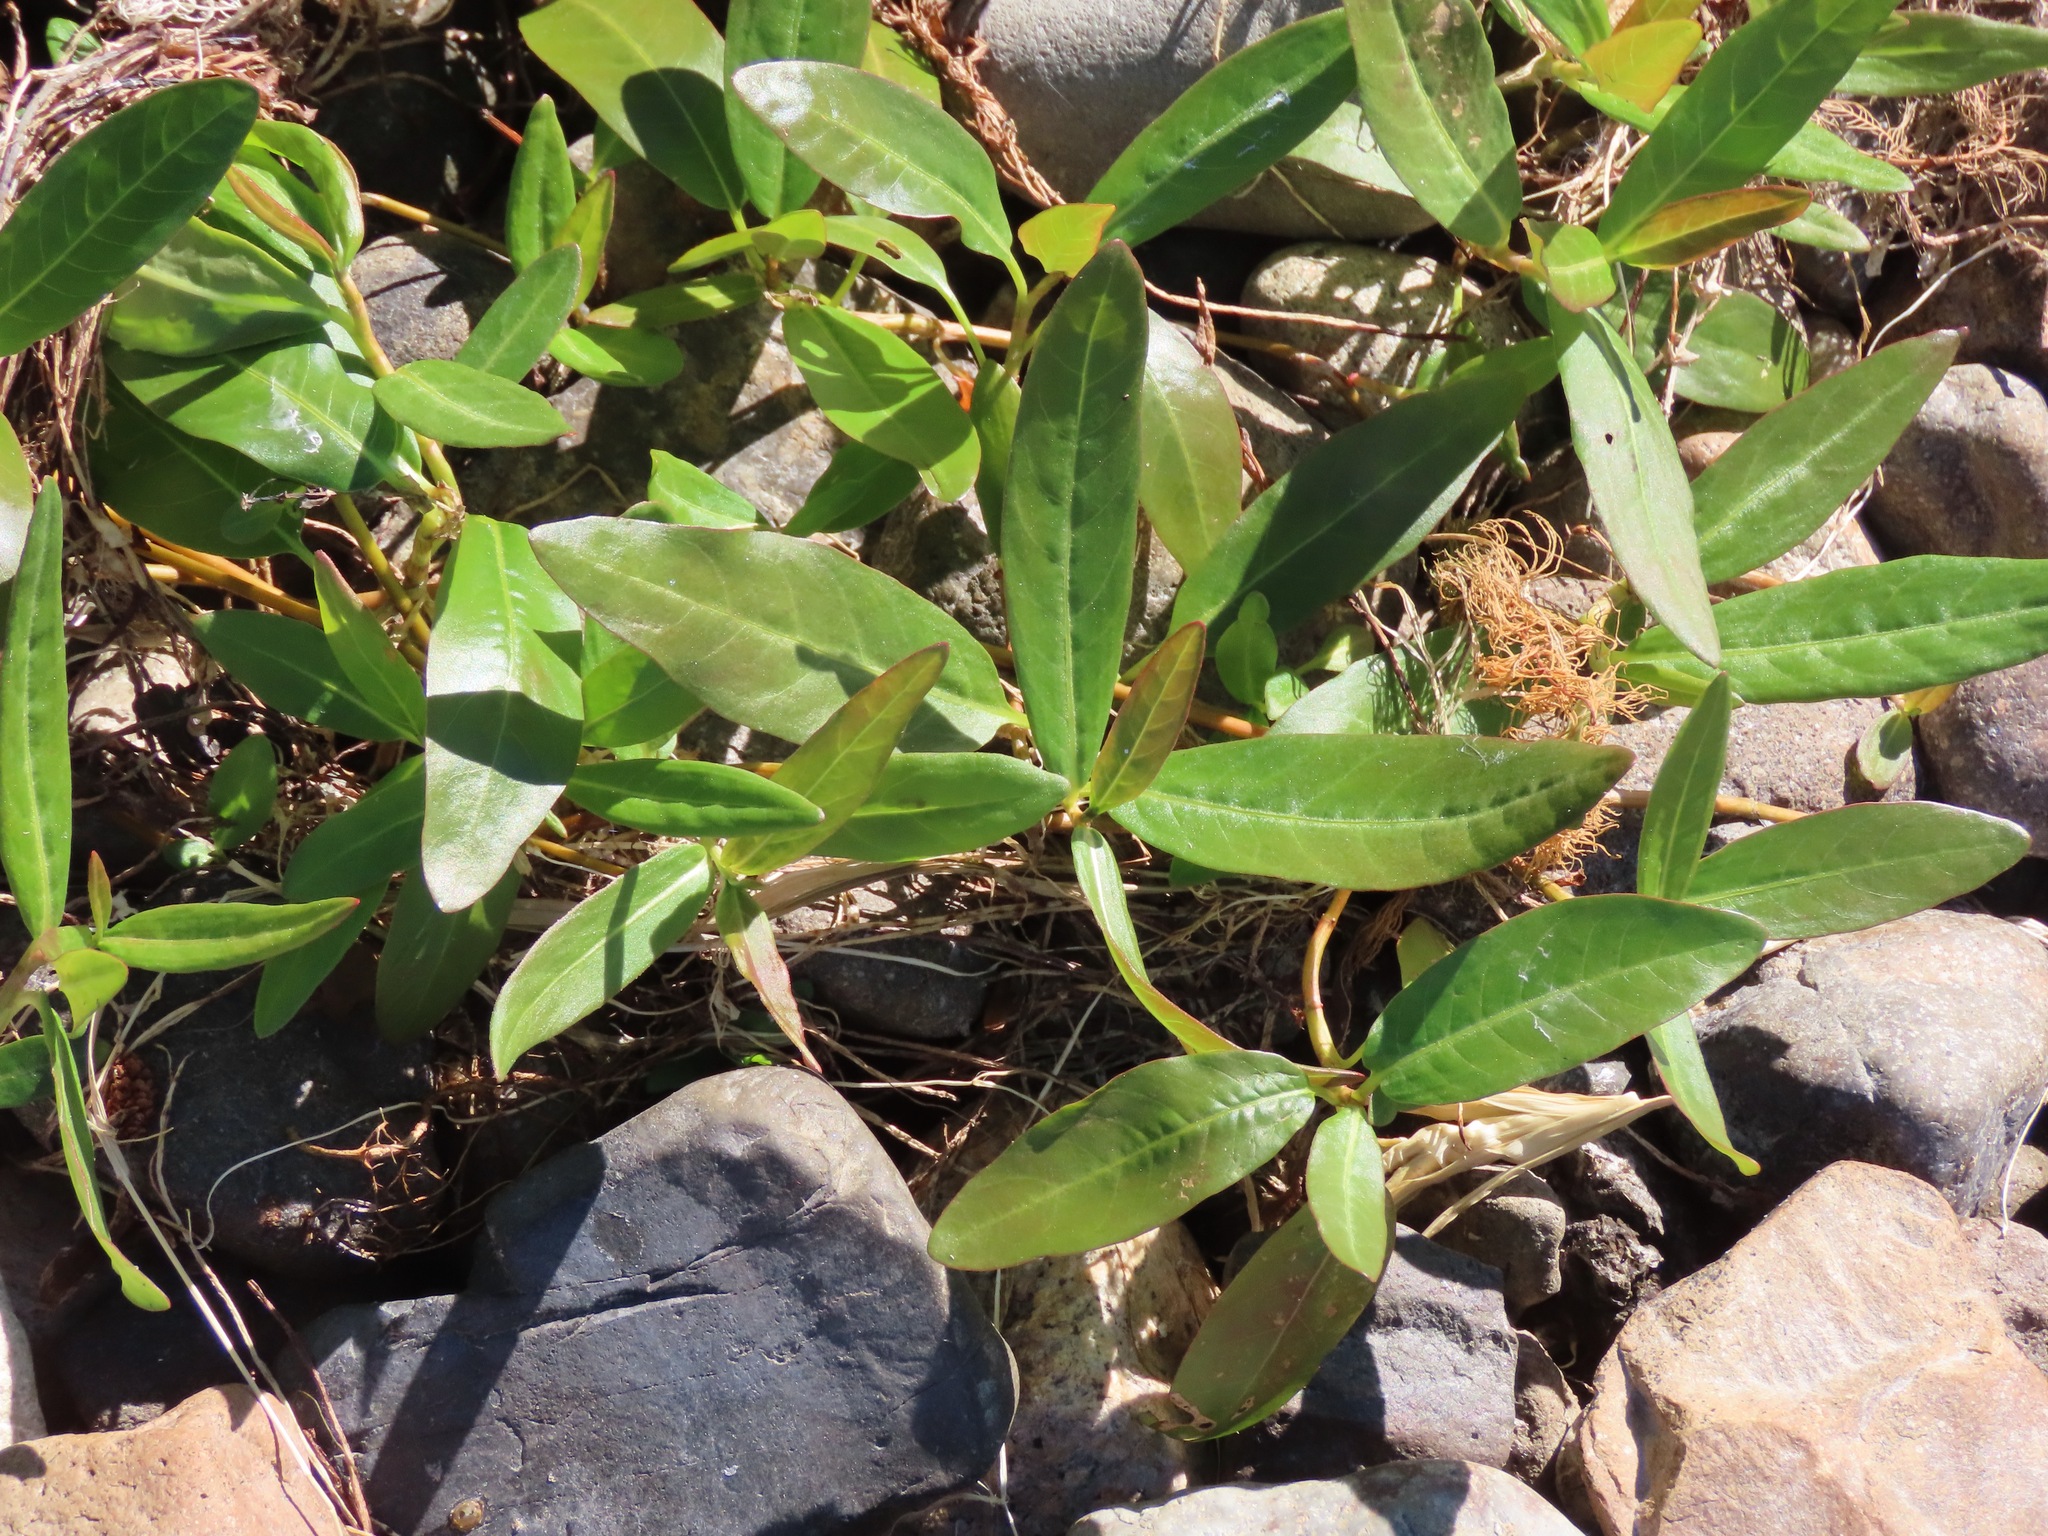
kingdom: Plantae
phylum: Tracheophyta
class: Magnoliopsida
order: Caryophyllales
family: Polygonaceae
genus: Persicaria
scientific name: Persicaria amphibia
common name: Amphibious bistort
